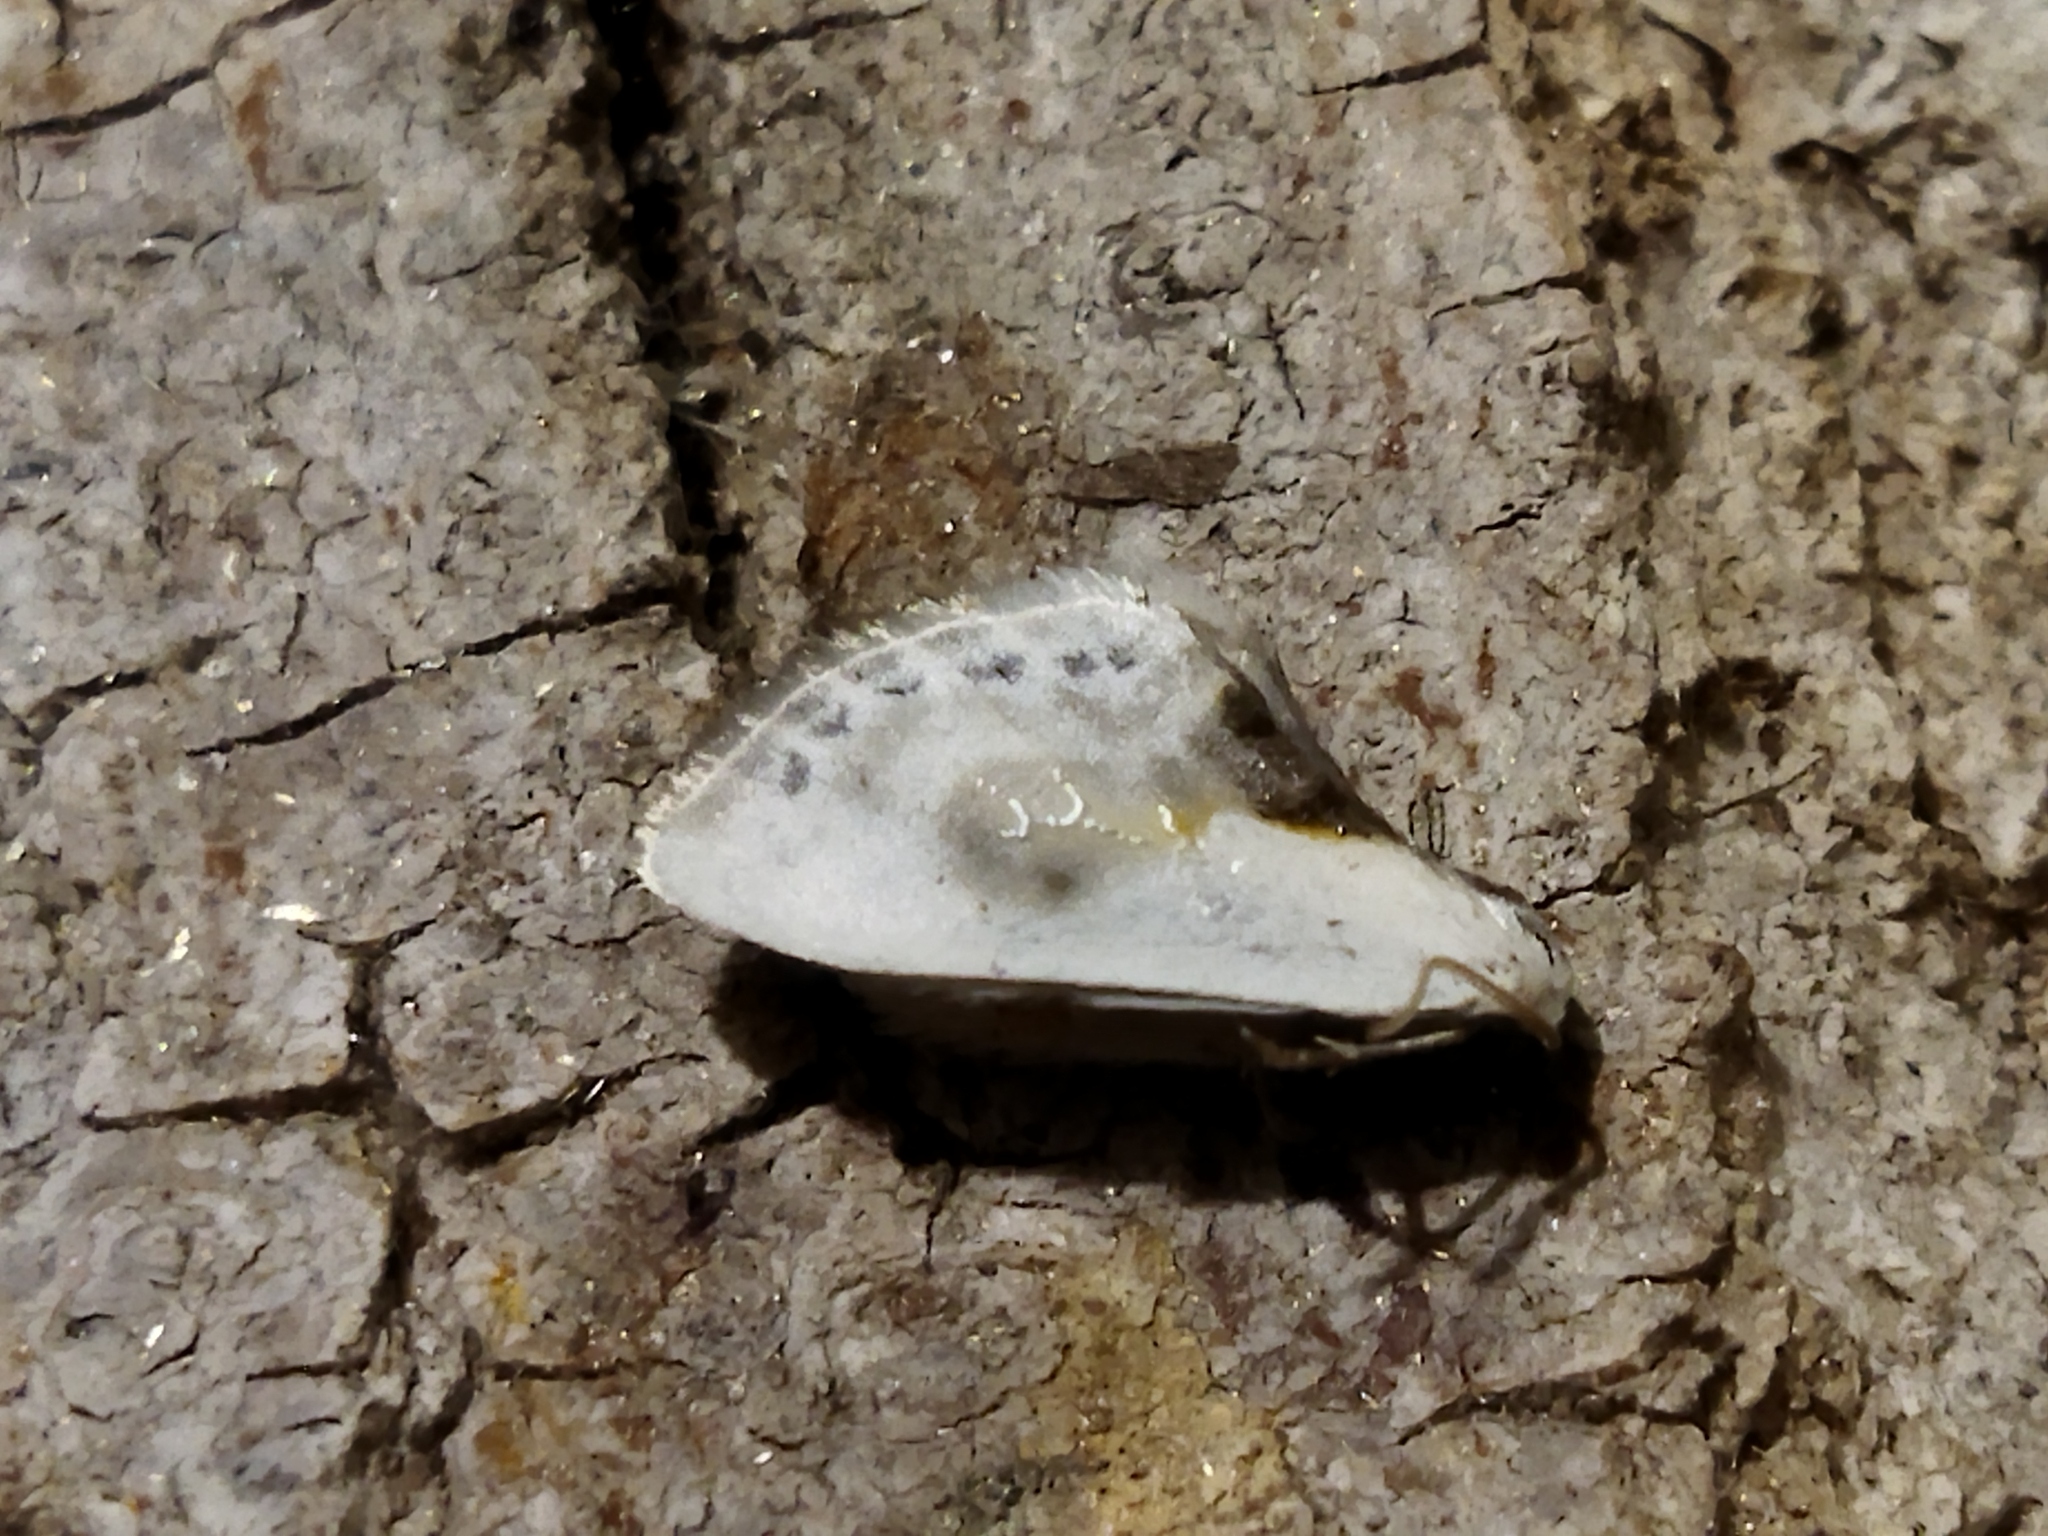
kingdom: Animalia
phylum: Arthropoda
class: Insecta
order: Lepidoptera
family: Drepanidae
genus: Cilix
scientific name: Cilix glaucata
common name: Chinese character
